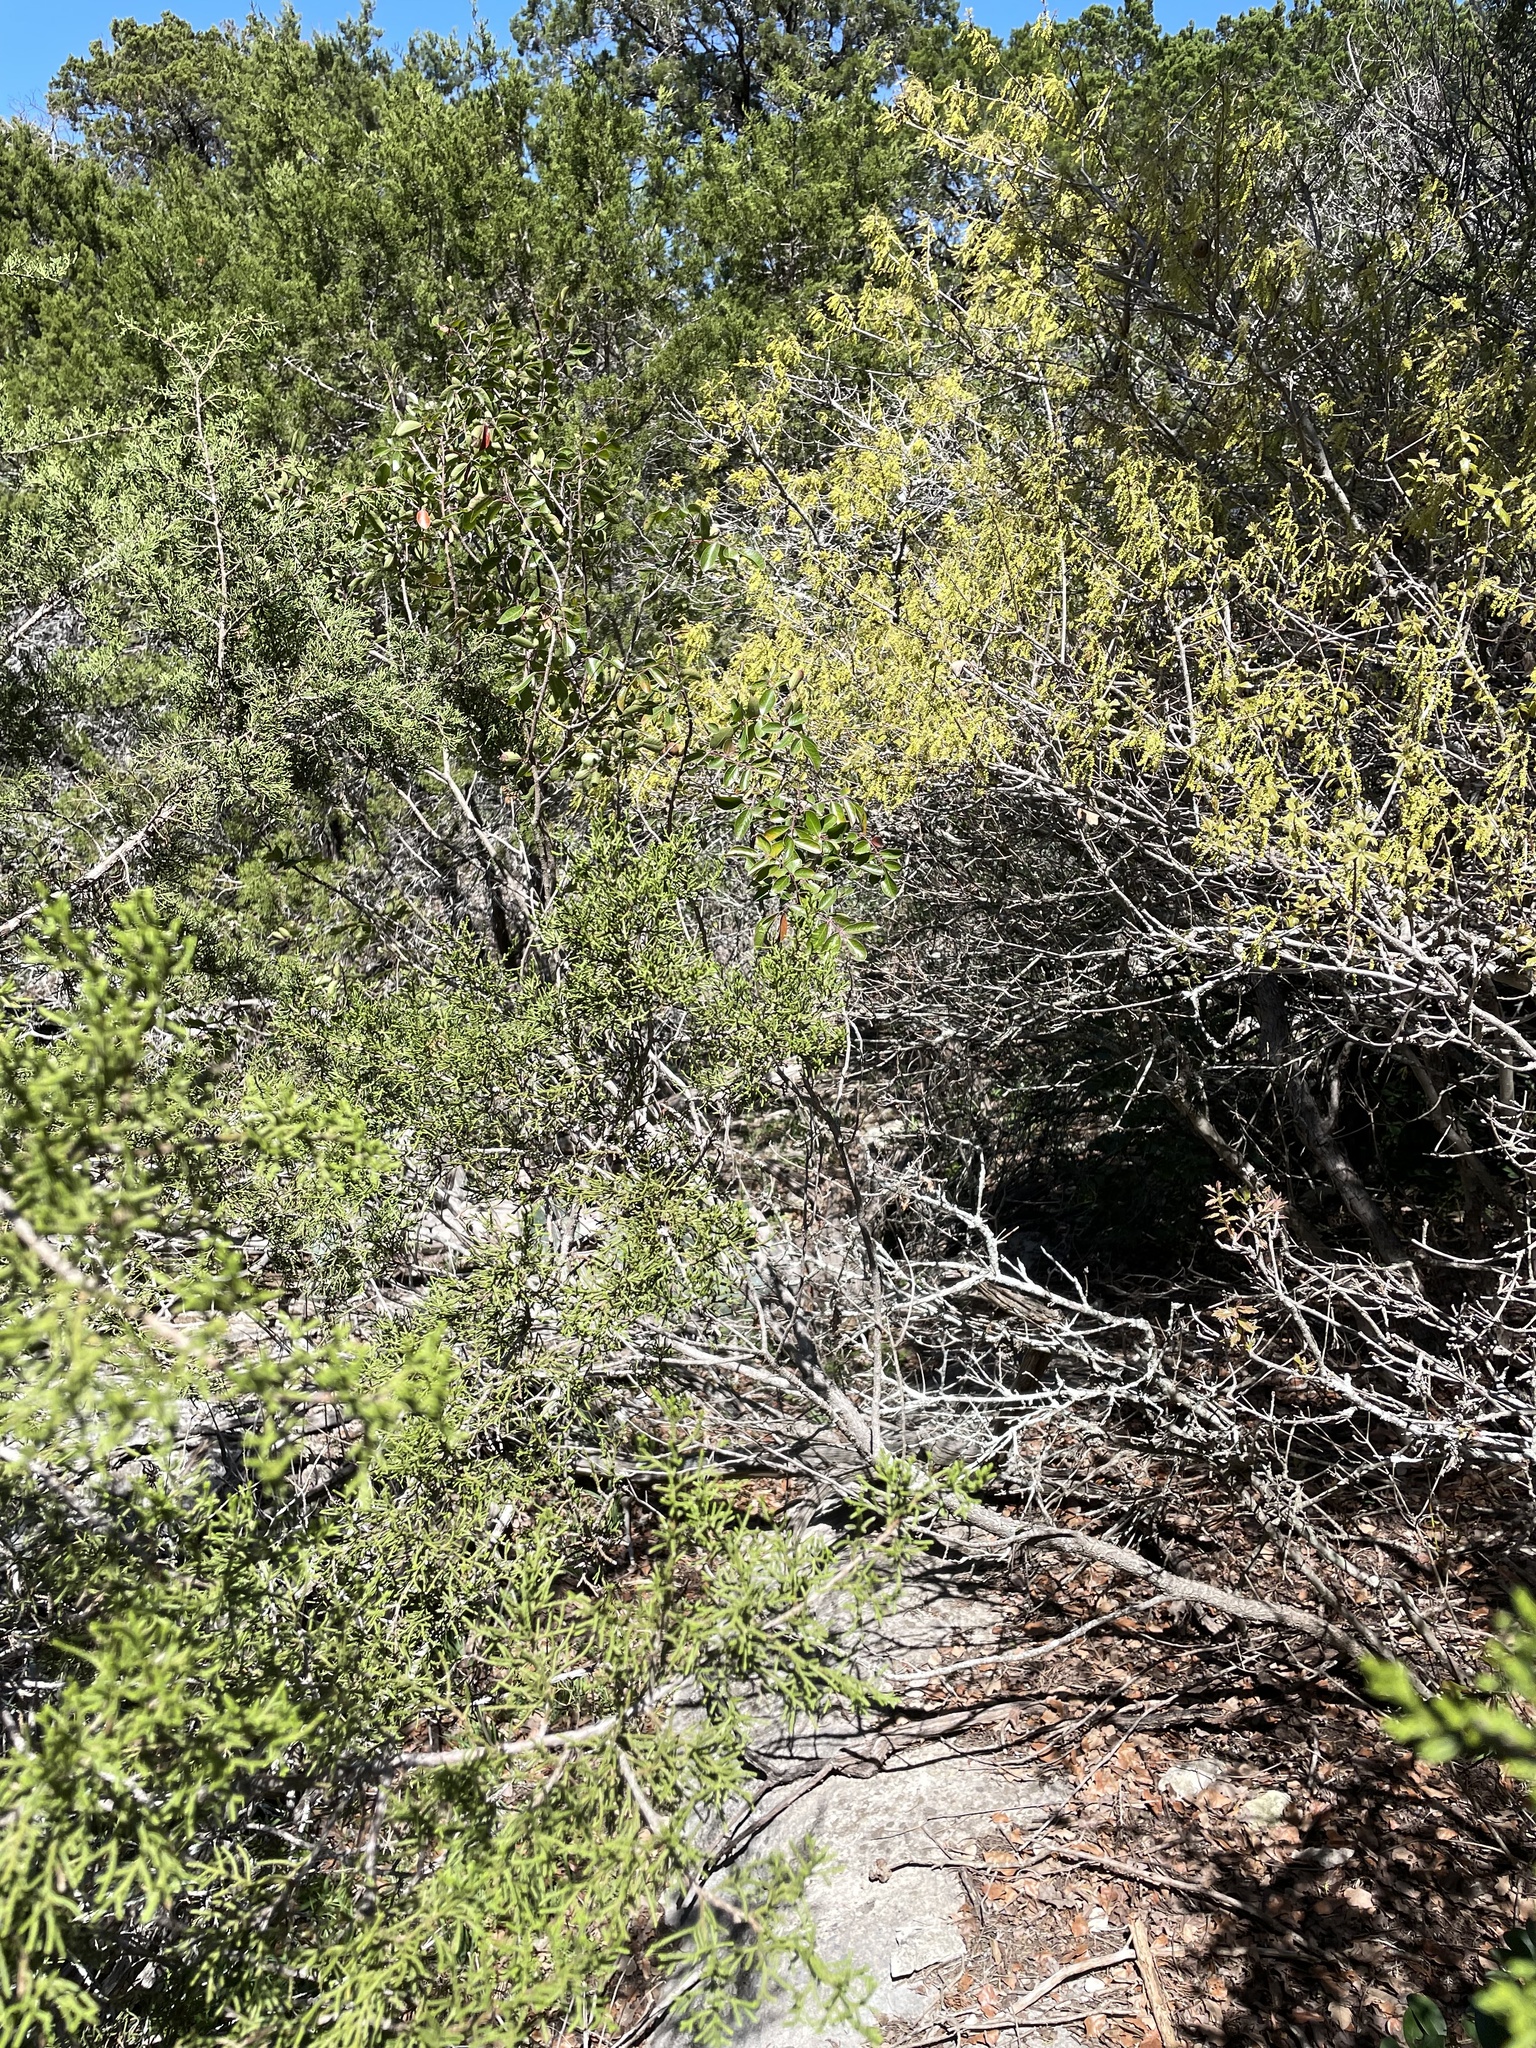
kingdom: Plantae
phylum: Tracheophyta
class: Magnoliopsida
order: Sapindales
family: Anacardiaceae
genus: Rhus
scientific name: Rhus virens
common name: Evergreen sumac
